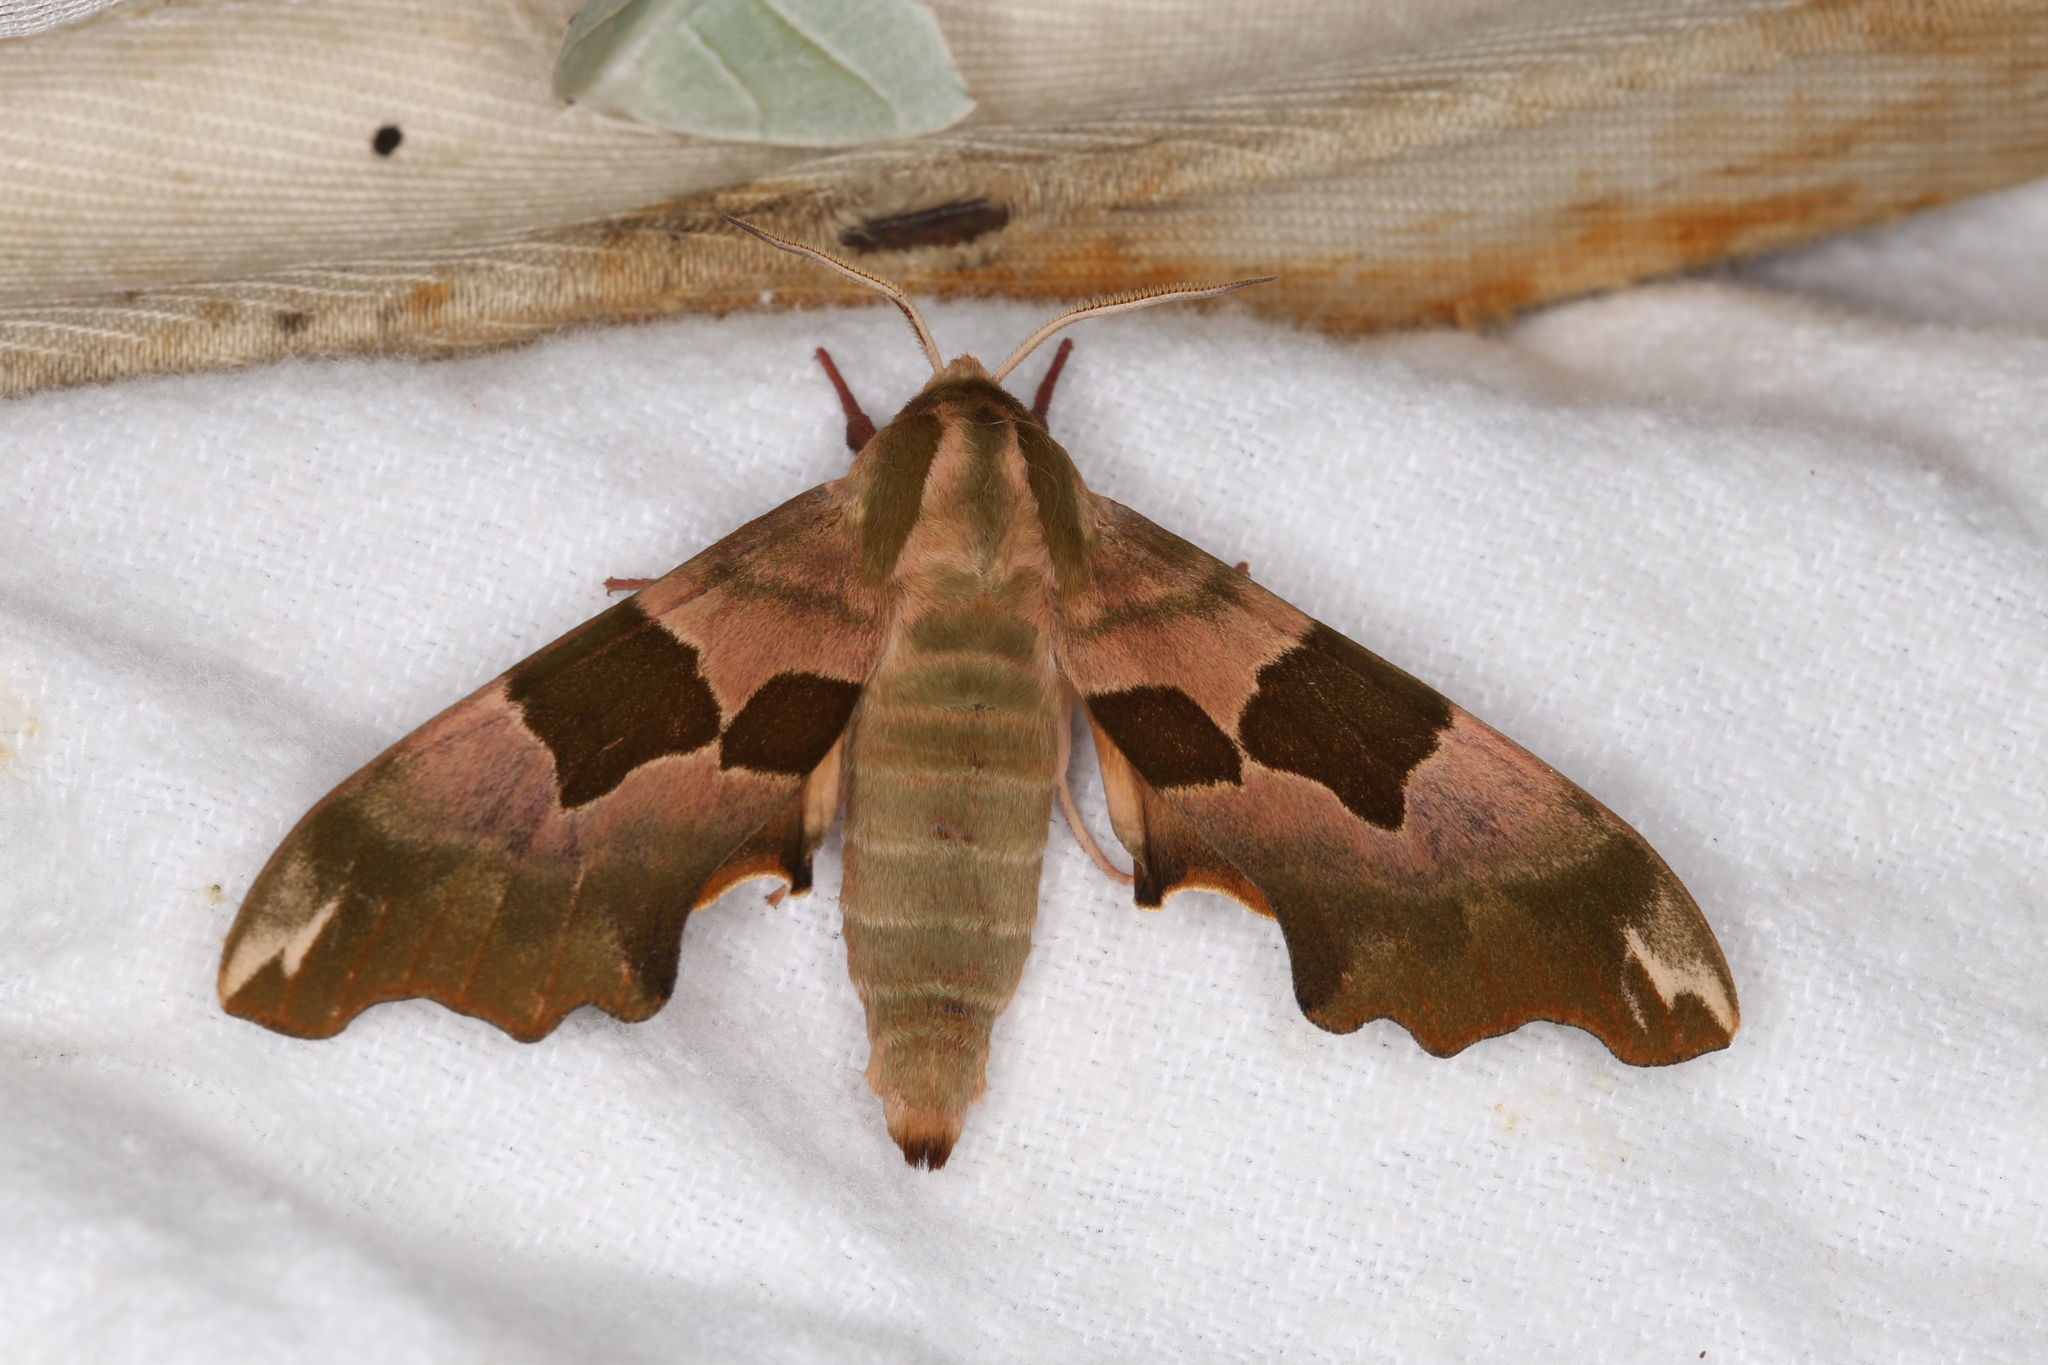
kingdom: Animalia
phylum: Arthropoda
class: Insecta
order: Lepidoptera
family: Sphingidae
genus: Mimas
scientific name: Mimas tiliae
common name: Lime hawk-moth
